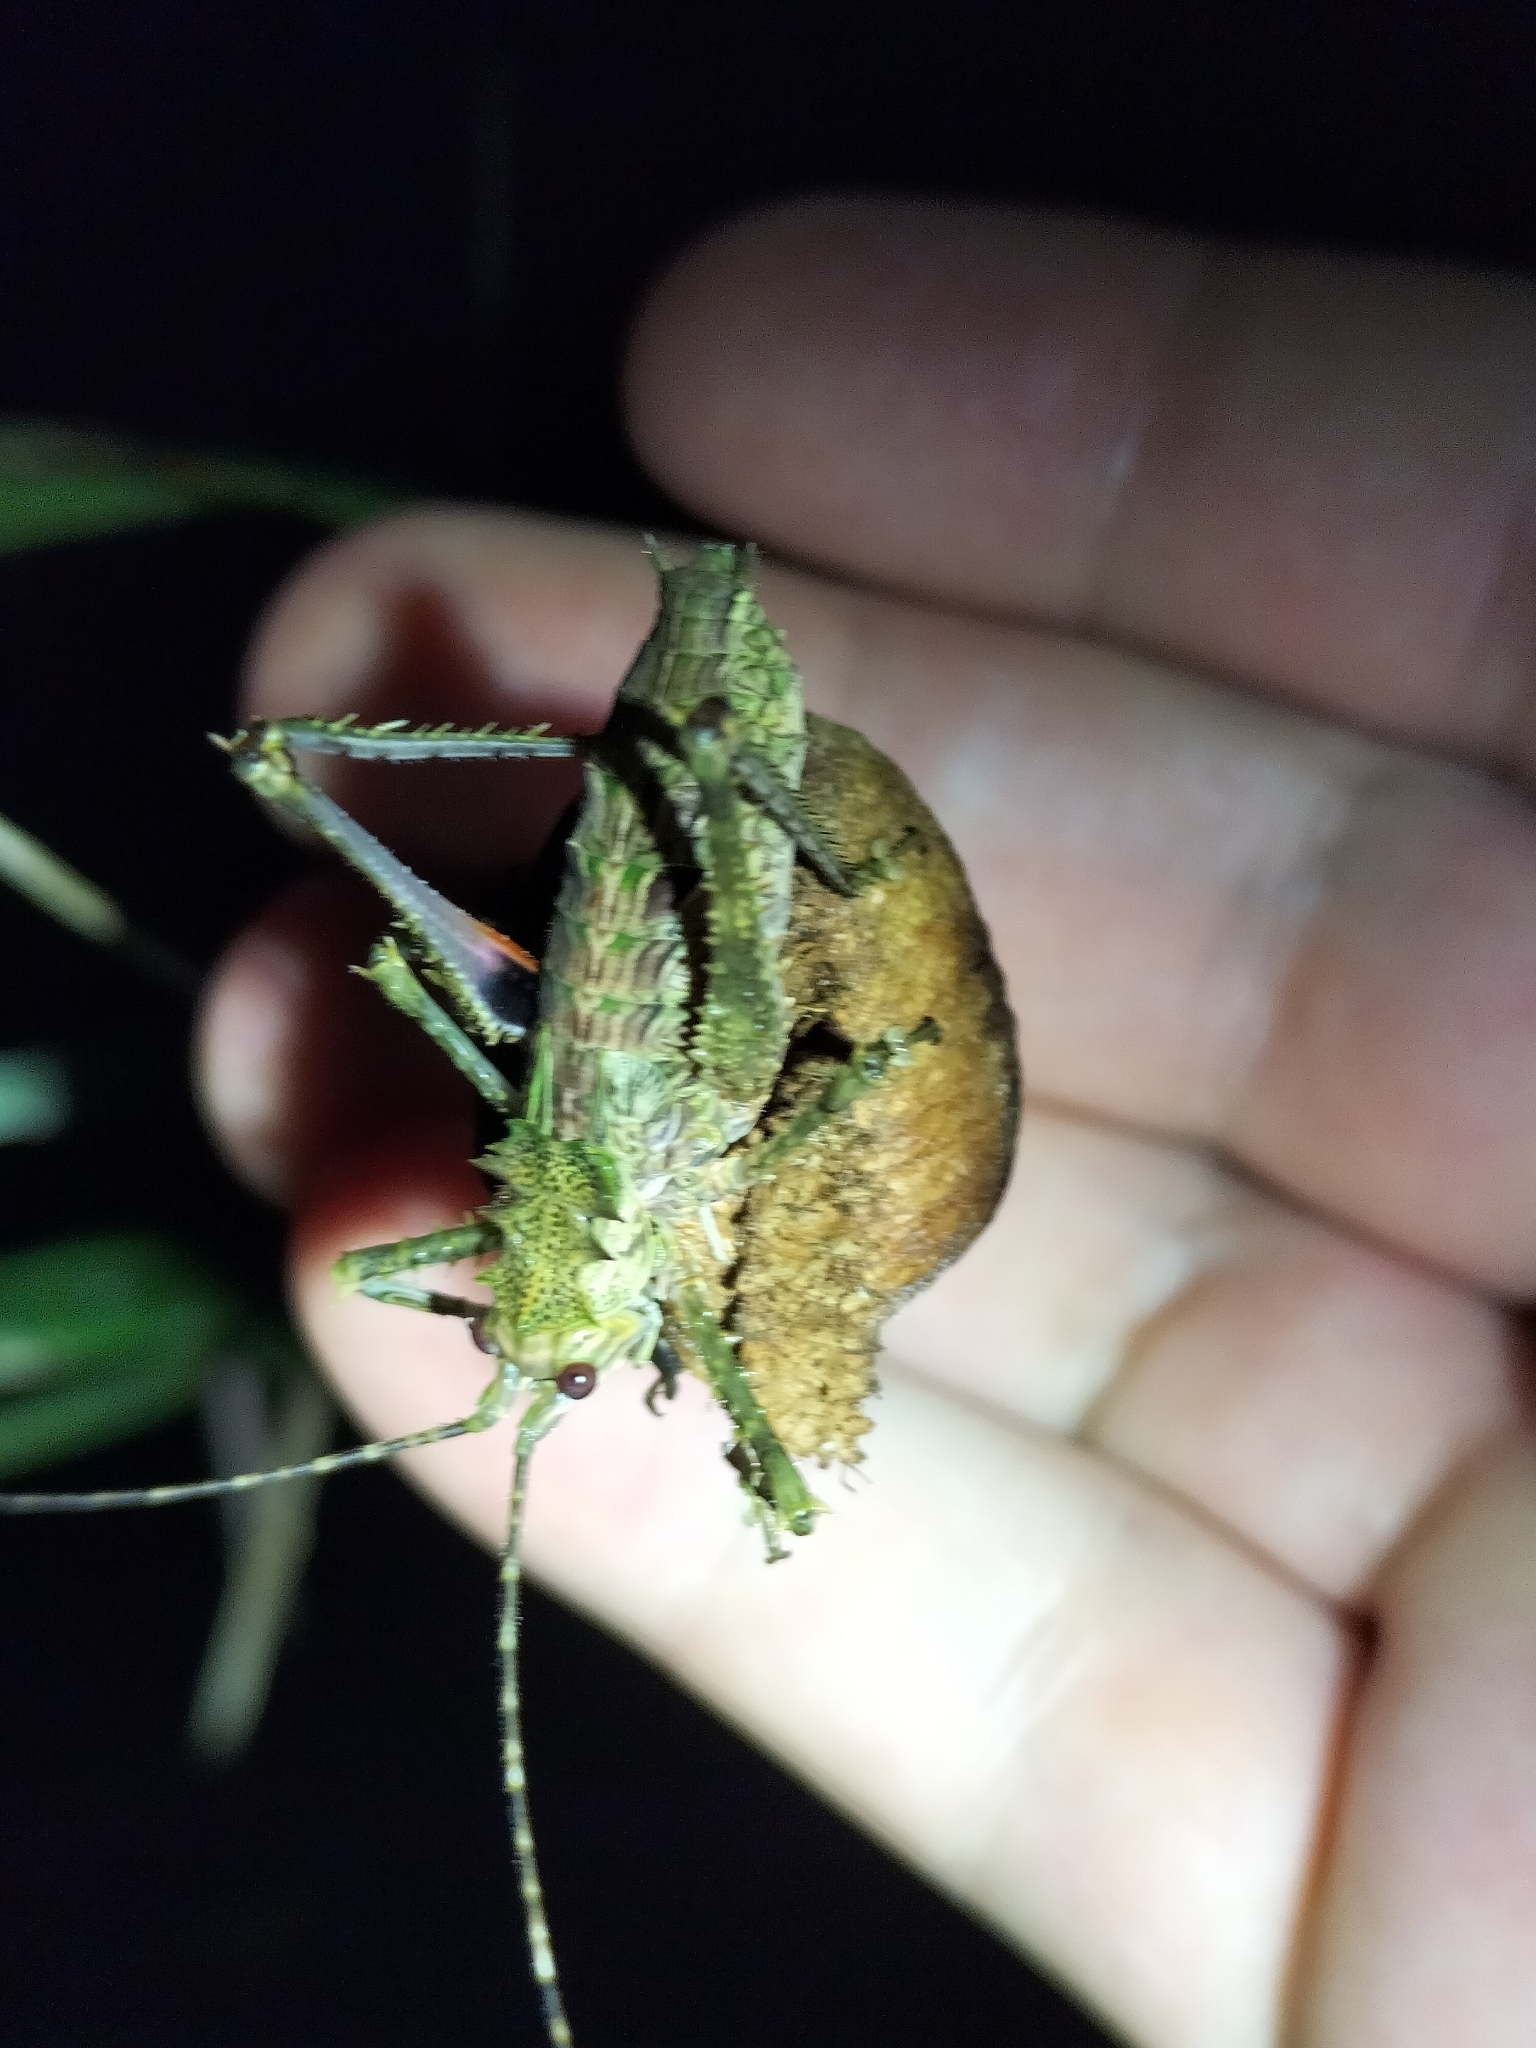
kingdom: Animalia
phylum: Arthropoda
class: Insecta
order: Orthoptera
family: Tettigoniidae
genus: Phricta
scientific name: Phricta spinosa
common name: Giant spiny forest katydid
